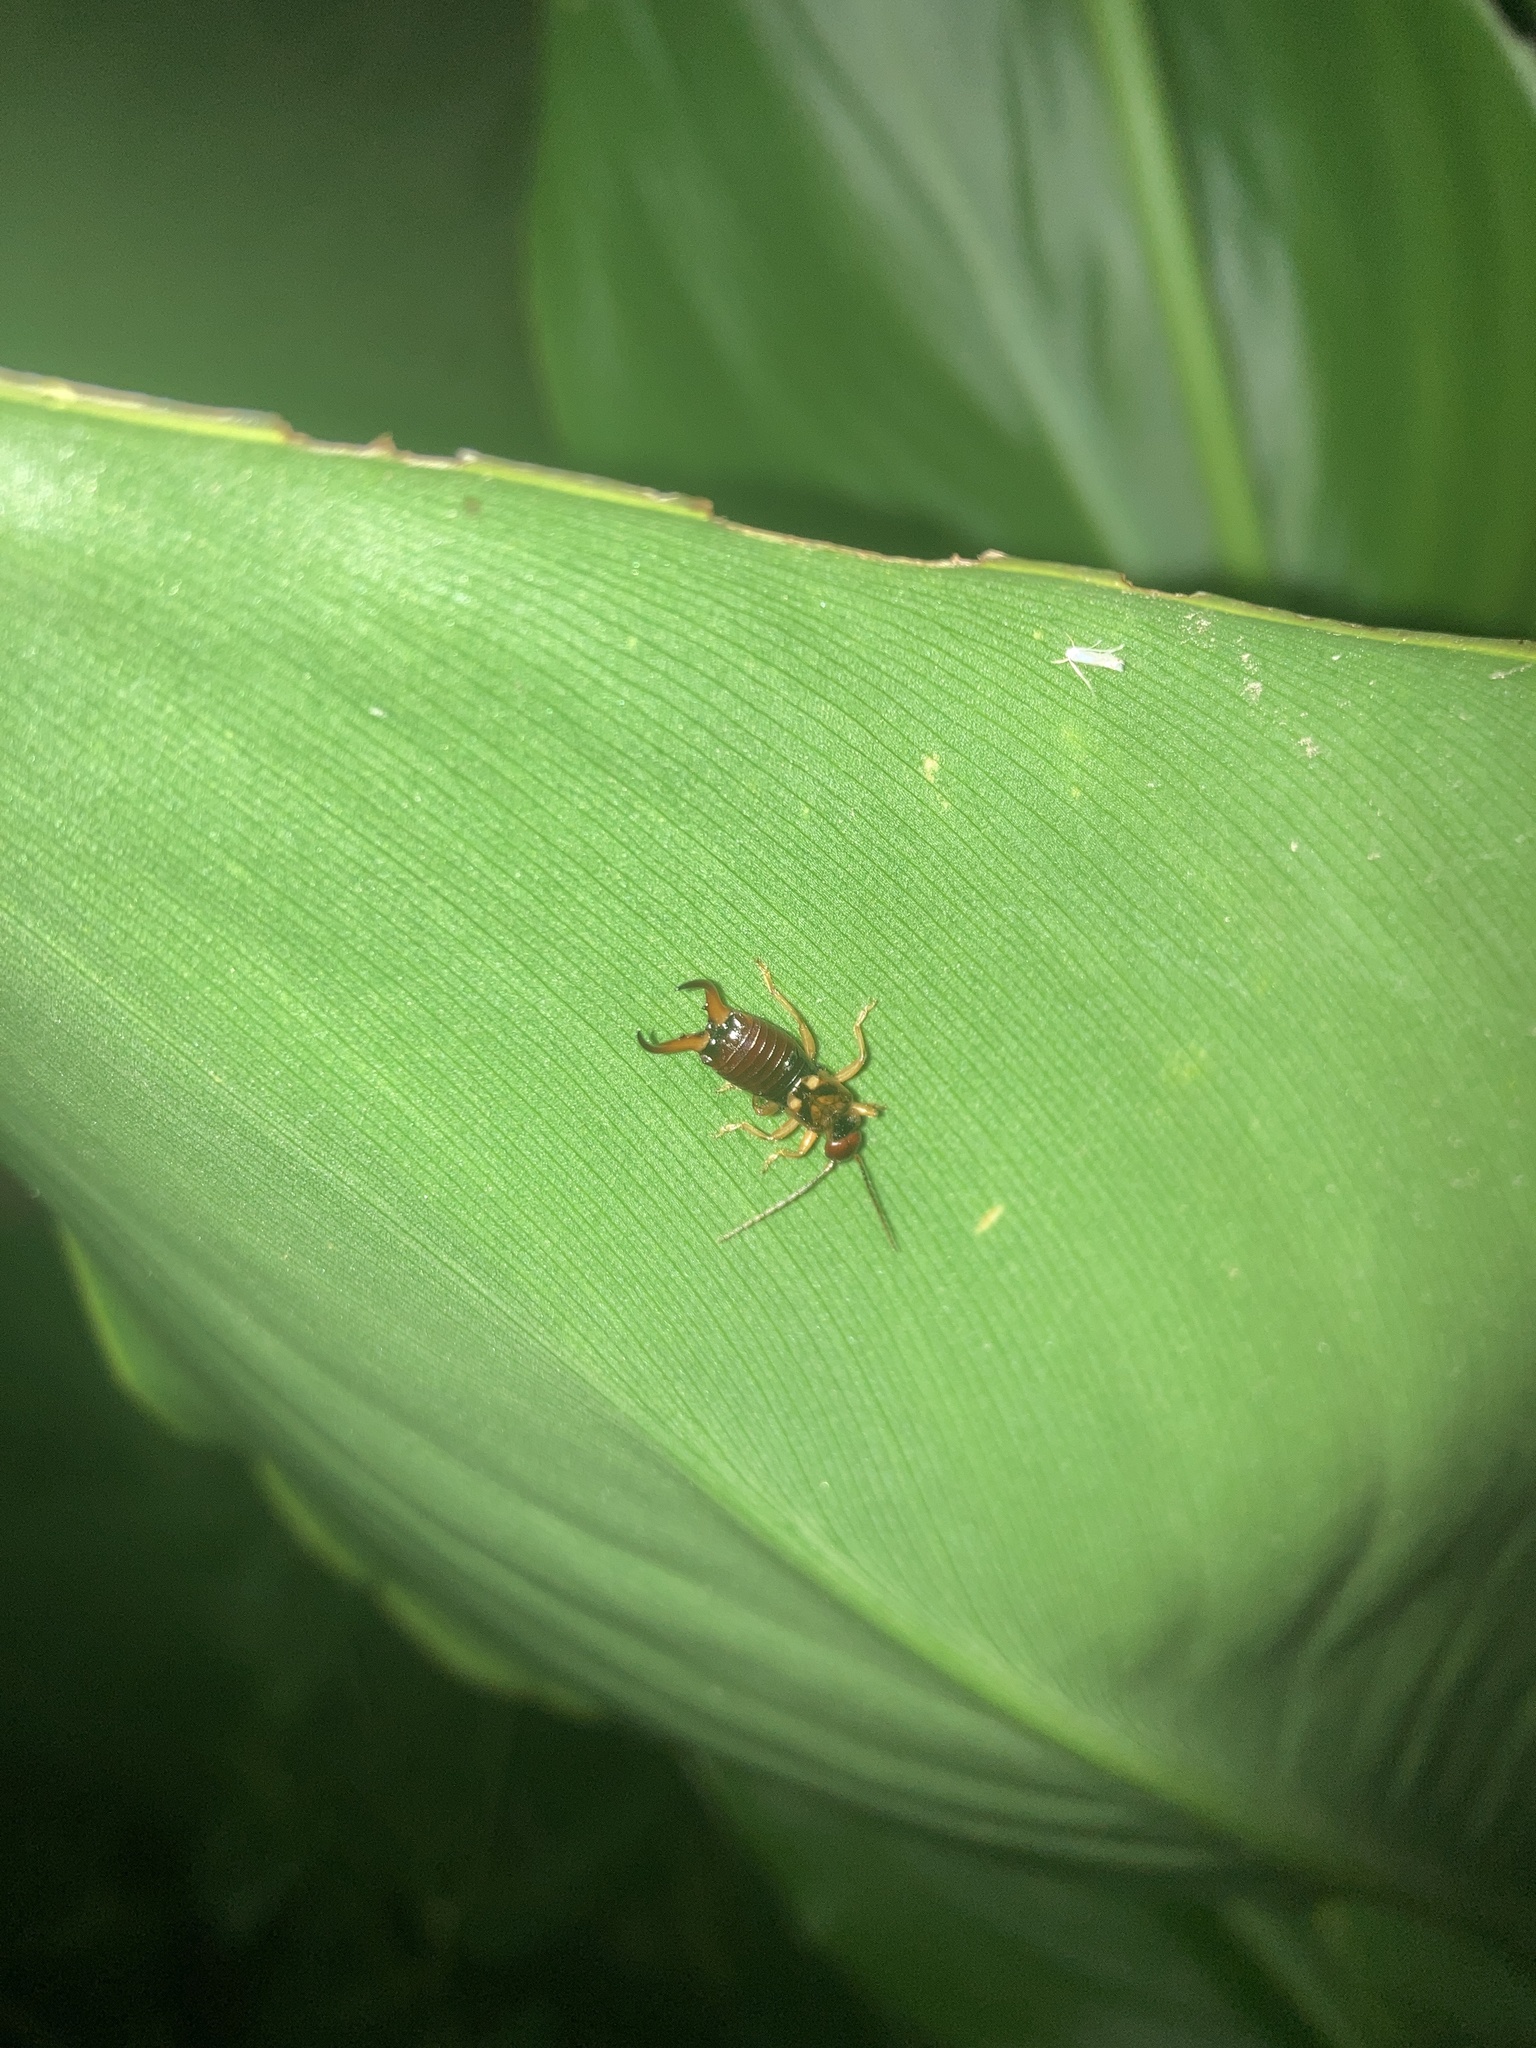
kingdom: Animalia
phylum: Arthropoda
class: Insecta
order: Dermaptera
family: Forficulidae
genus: Forficula
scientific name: Forficula
